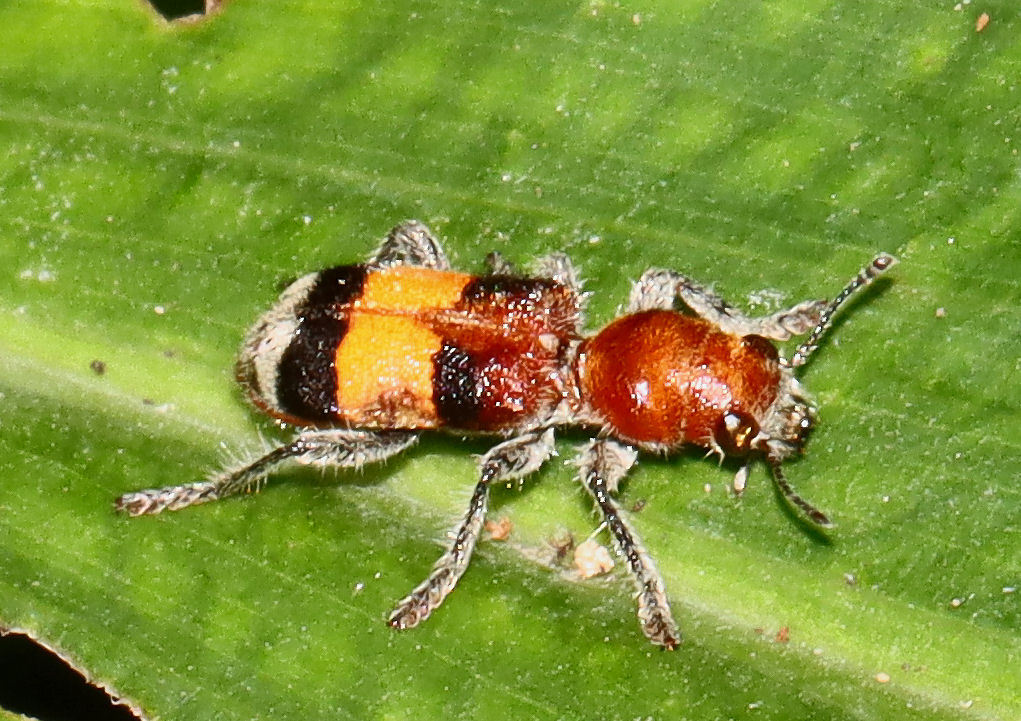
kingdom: Animalia
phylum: Arthropoda
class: Insecta
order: Coleoptera
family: Cleridae
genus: Enoclerus
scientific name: Enoclerus ichneumoneus
